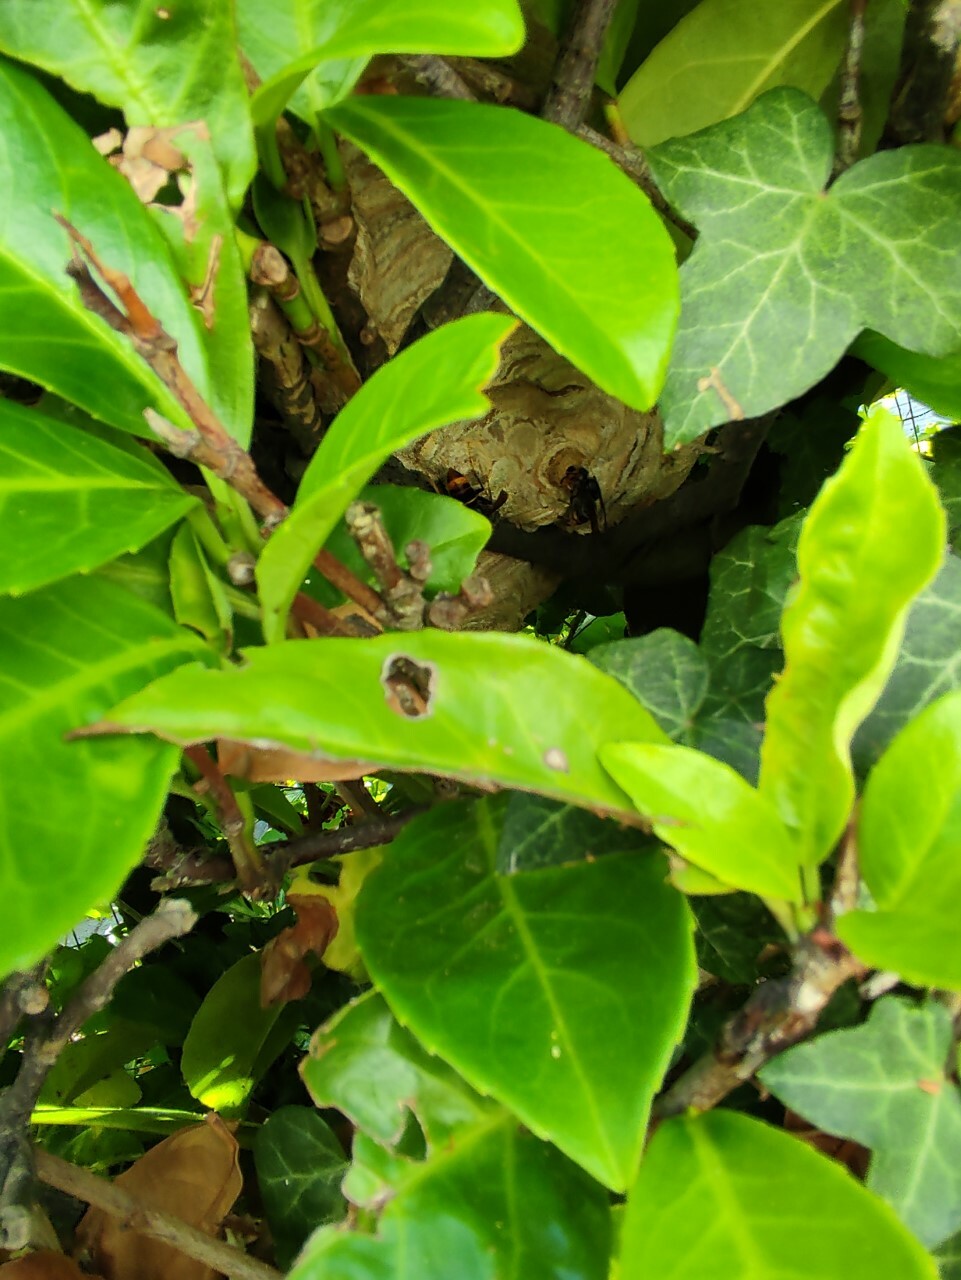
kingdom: Animalia
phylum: Arthropoda
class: Insecta
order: Hymenoptera
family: Vespidae
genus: Vespa
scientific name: Vespa velutina
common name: Asian hornet
